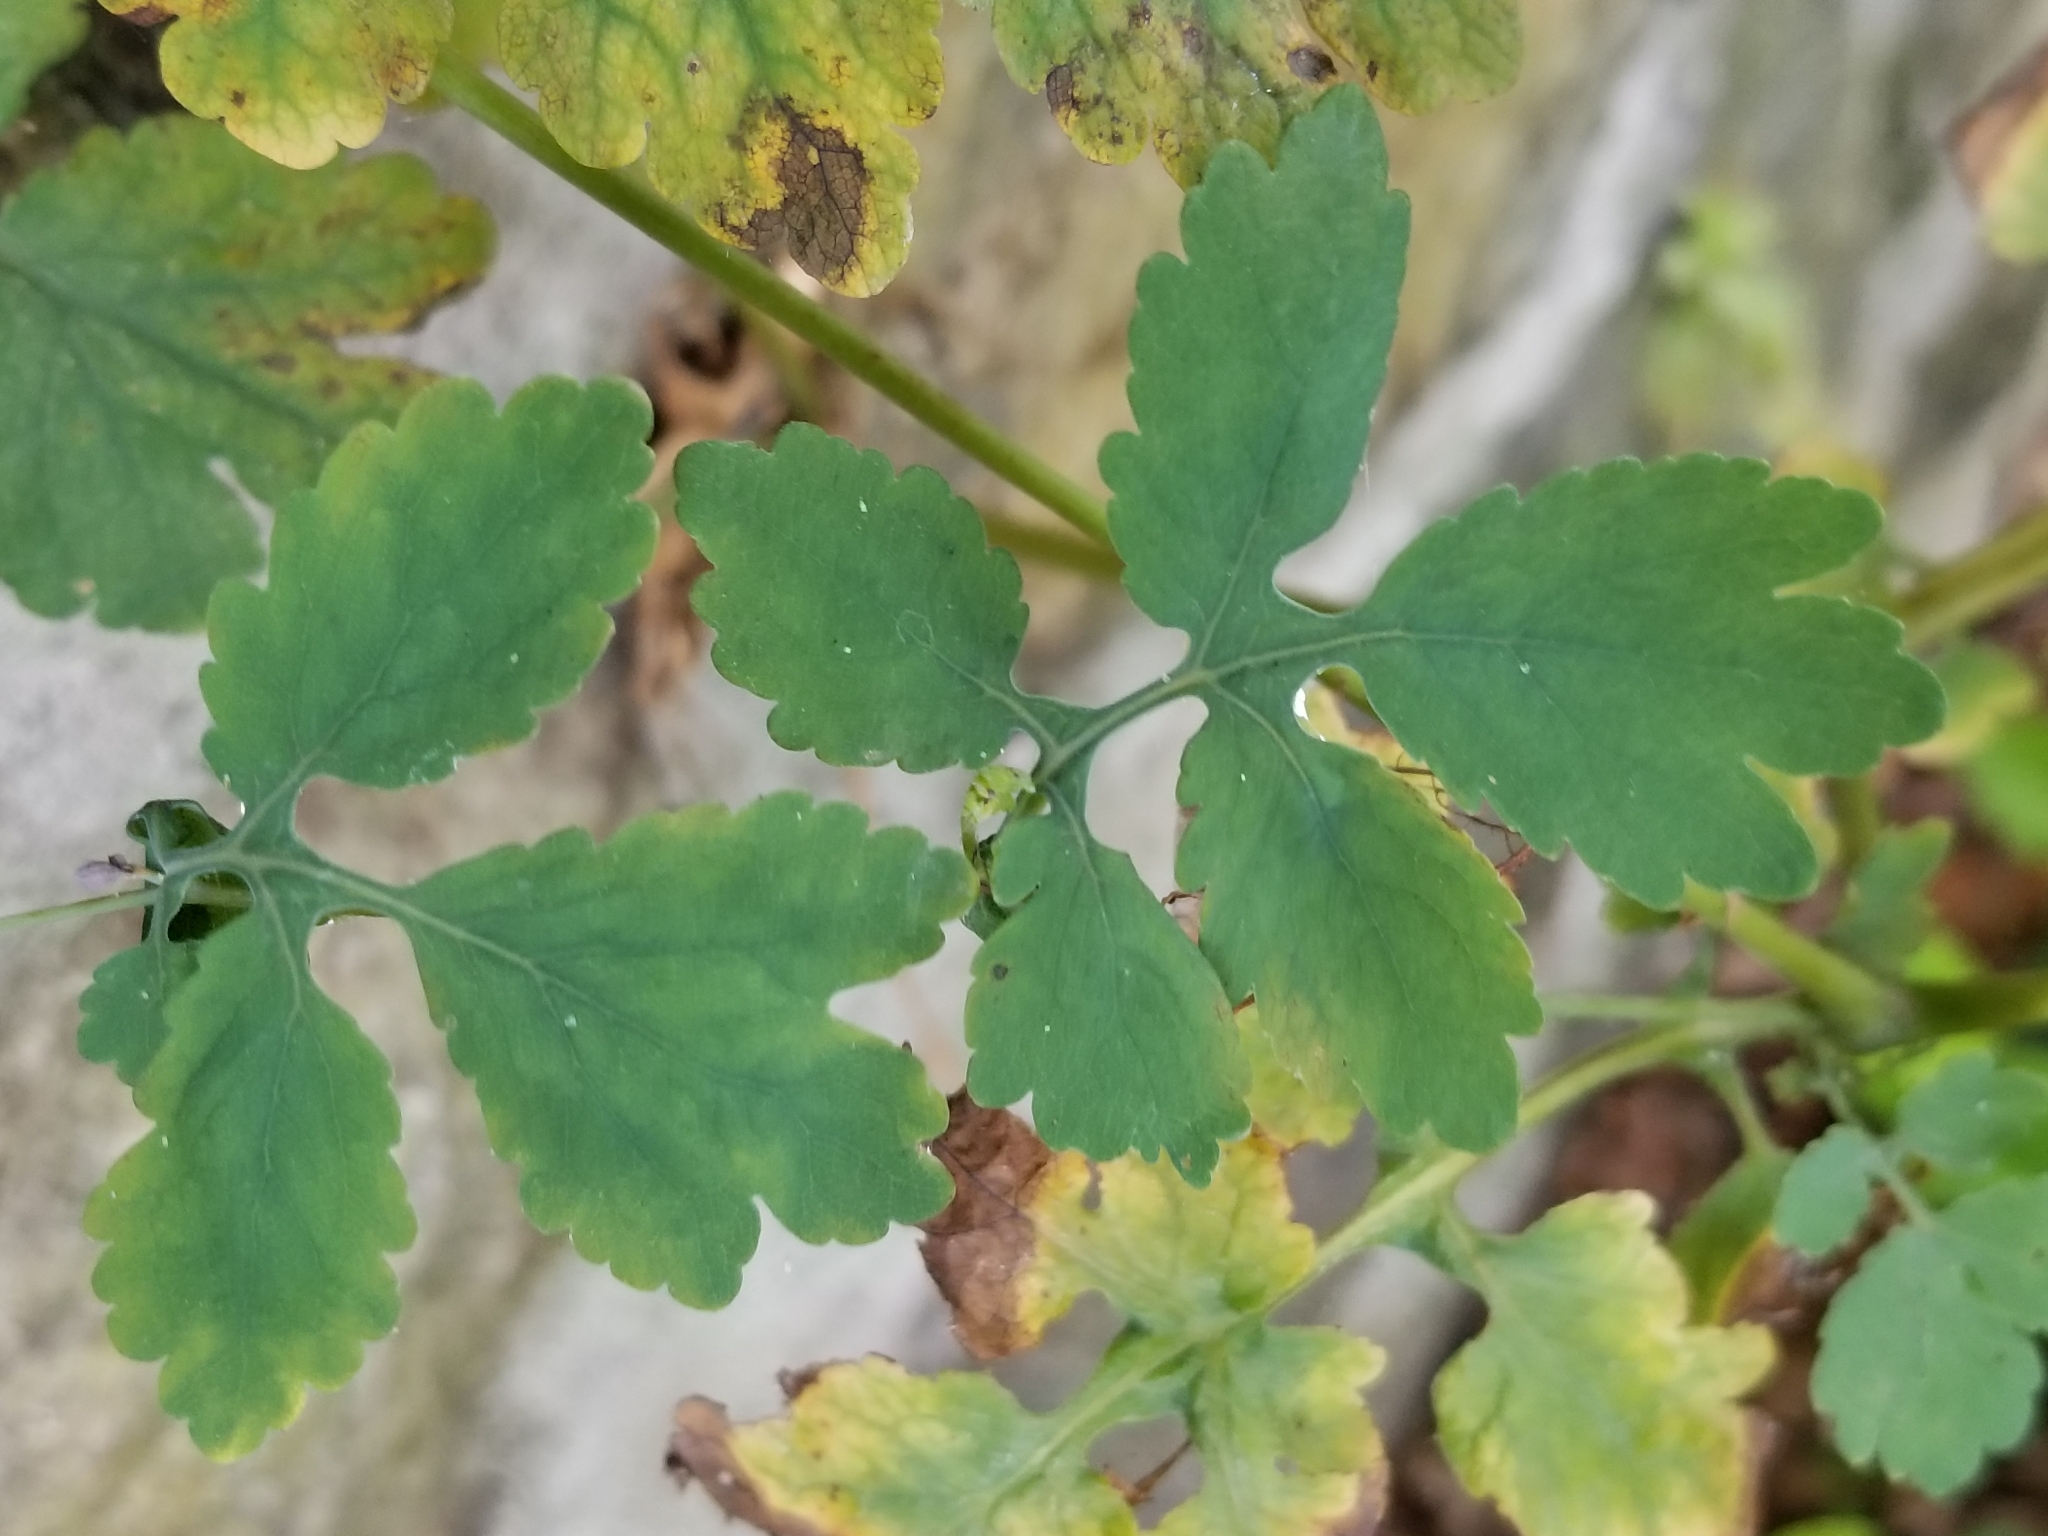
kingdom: Plantae
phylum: Tracheophyta
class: Magnoliopsida
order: Ranunculales
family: Papaveraceae
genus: Chelidonium
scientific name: Chelidonium majus
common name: Greater celandine
